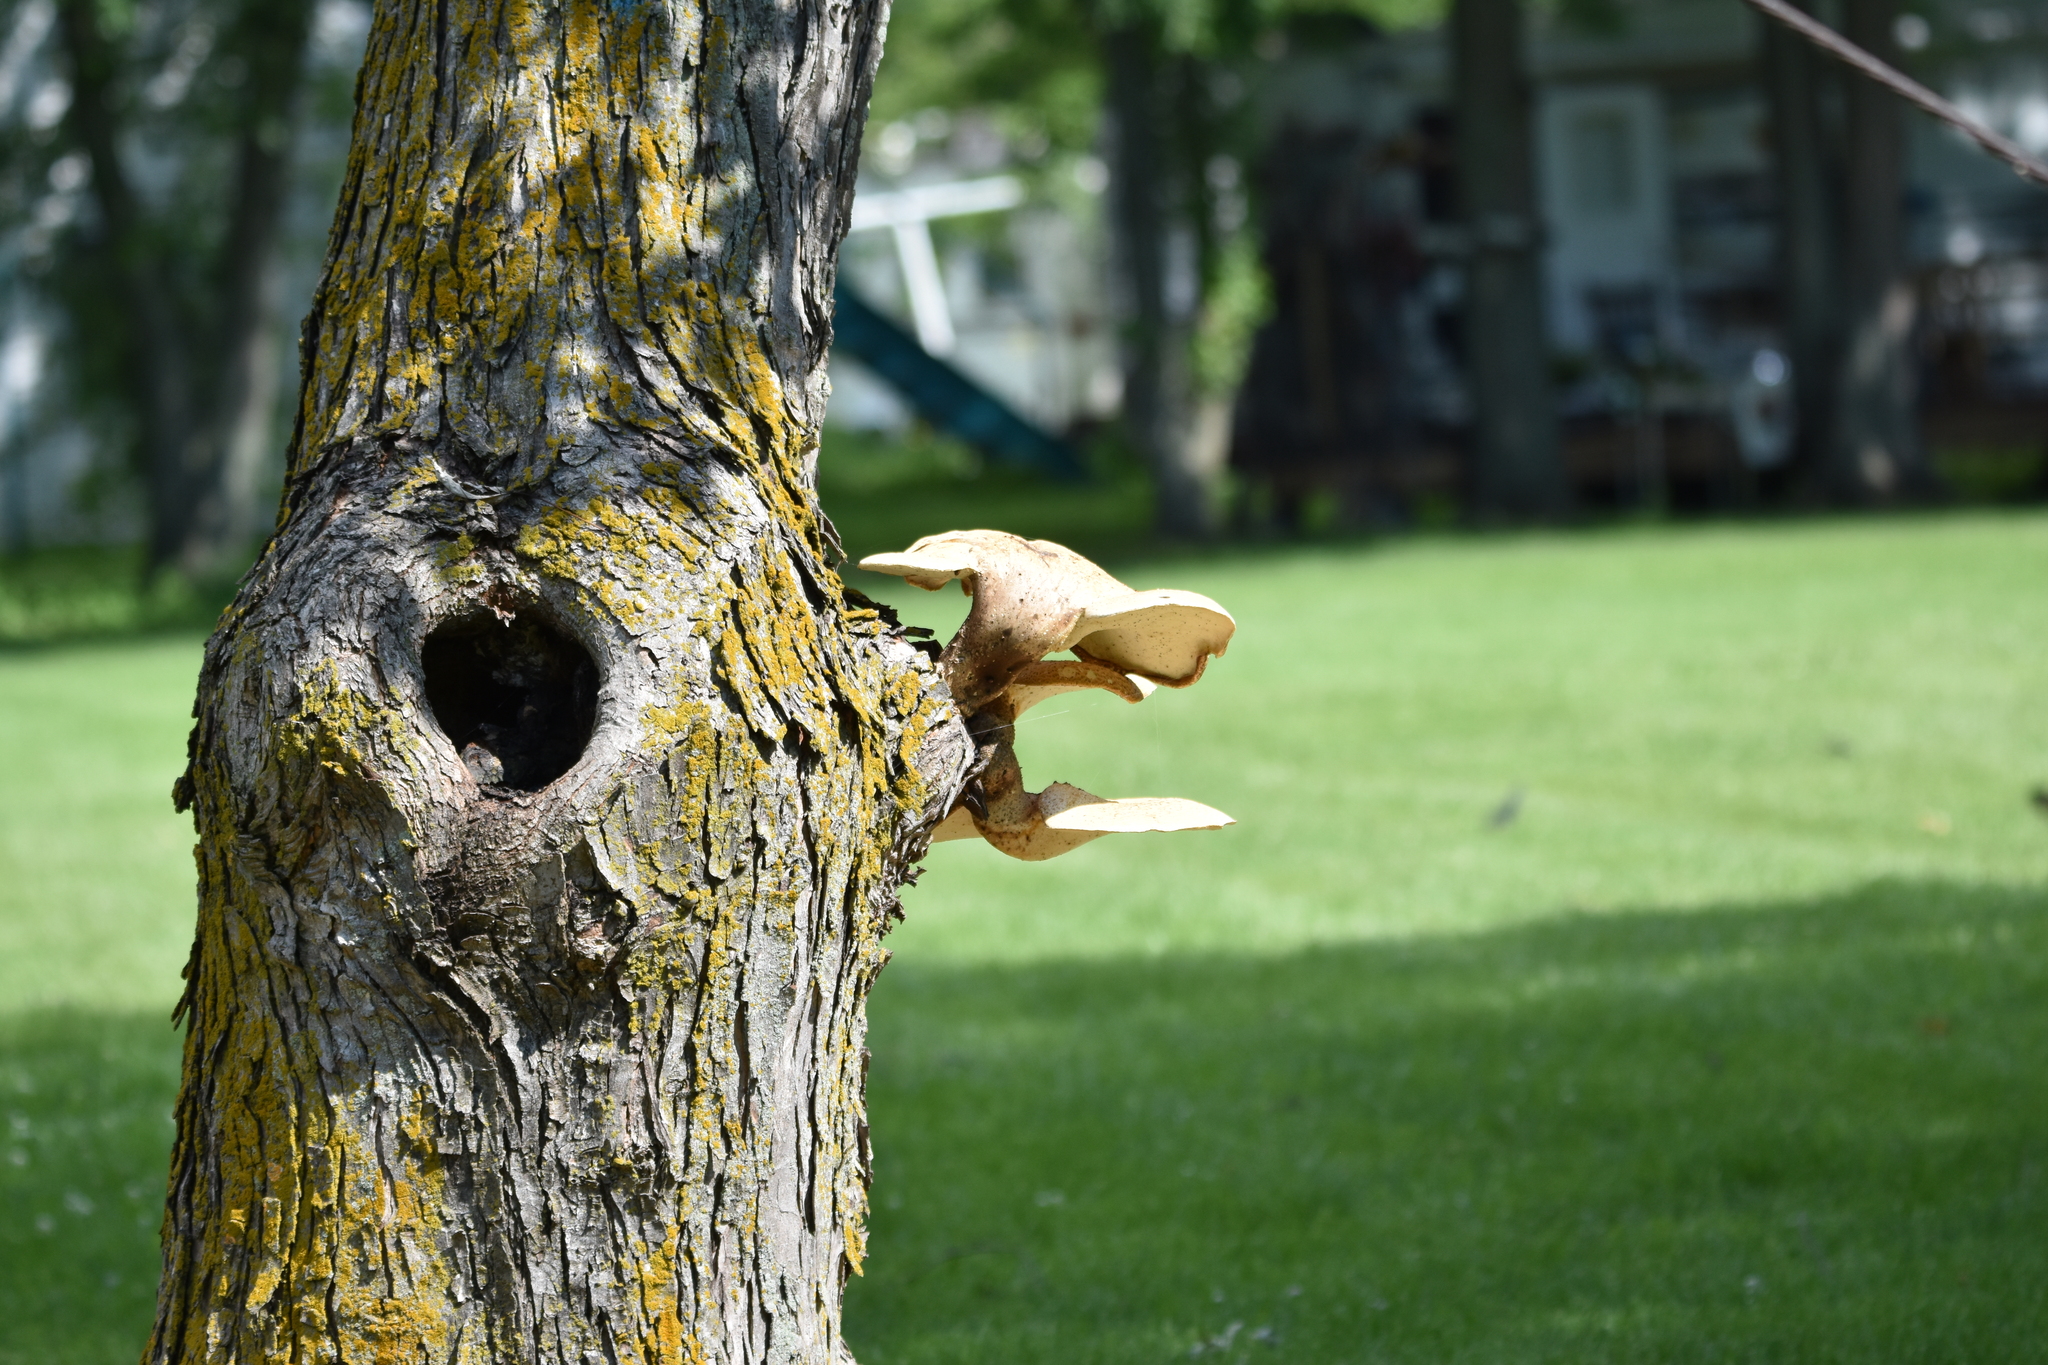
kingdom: Fungi
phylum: Basidiomycota
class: Agaricomycetes
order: Polyporales
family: Polyporaceae
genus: Cerioporus
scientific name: Cerioporus squamosus
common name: Dryad's saddle
